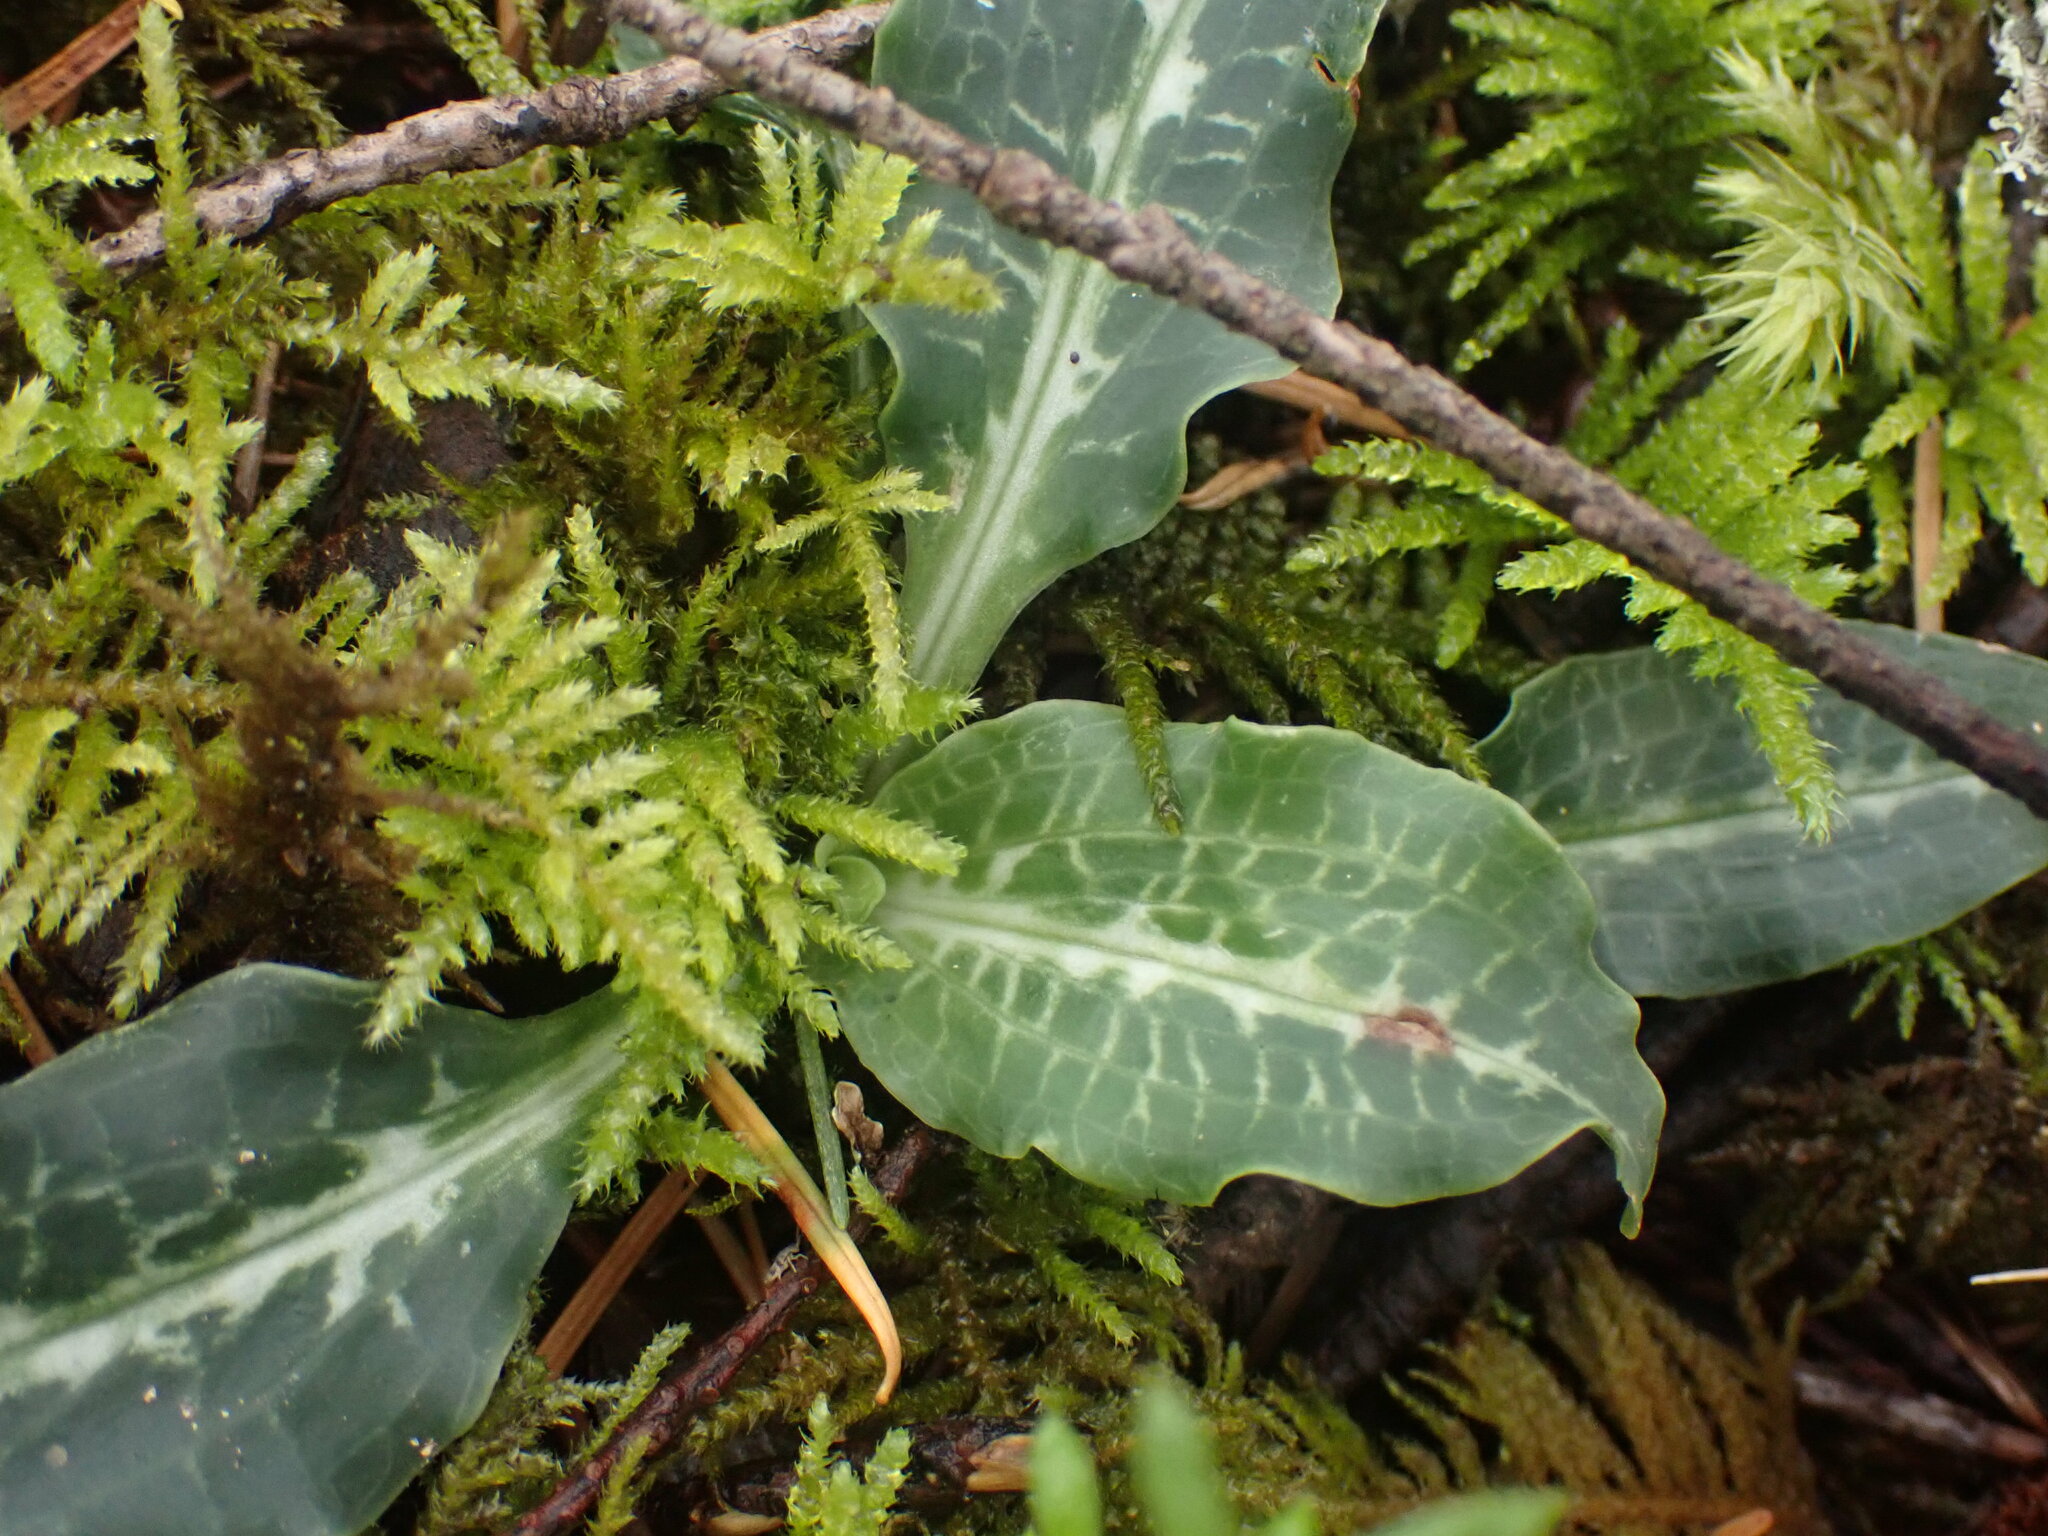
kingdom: Plantae
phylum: Tracheophyta
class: Liliopsida
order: Asparagales
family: Orchidaceae
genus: Goodyera
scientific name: Goodyera oblongifolia
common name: Giant rattlesnake-plantain
